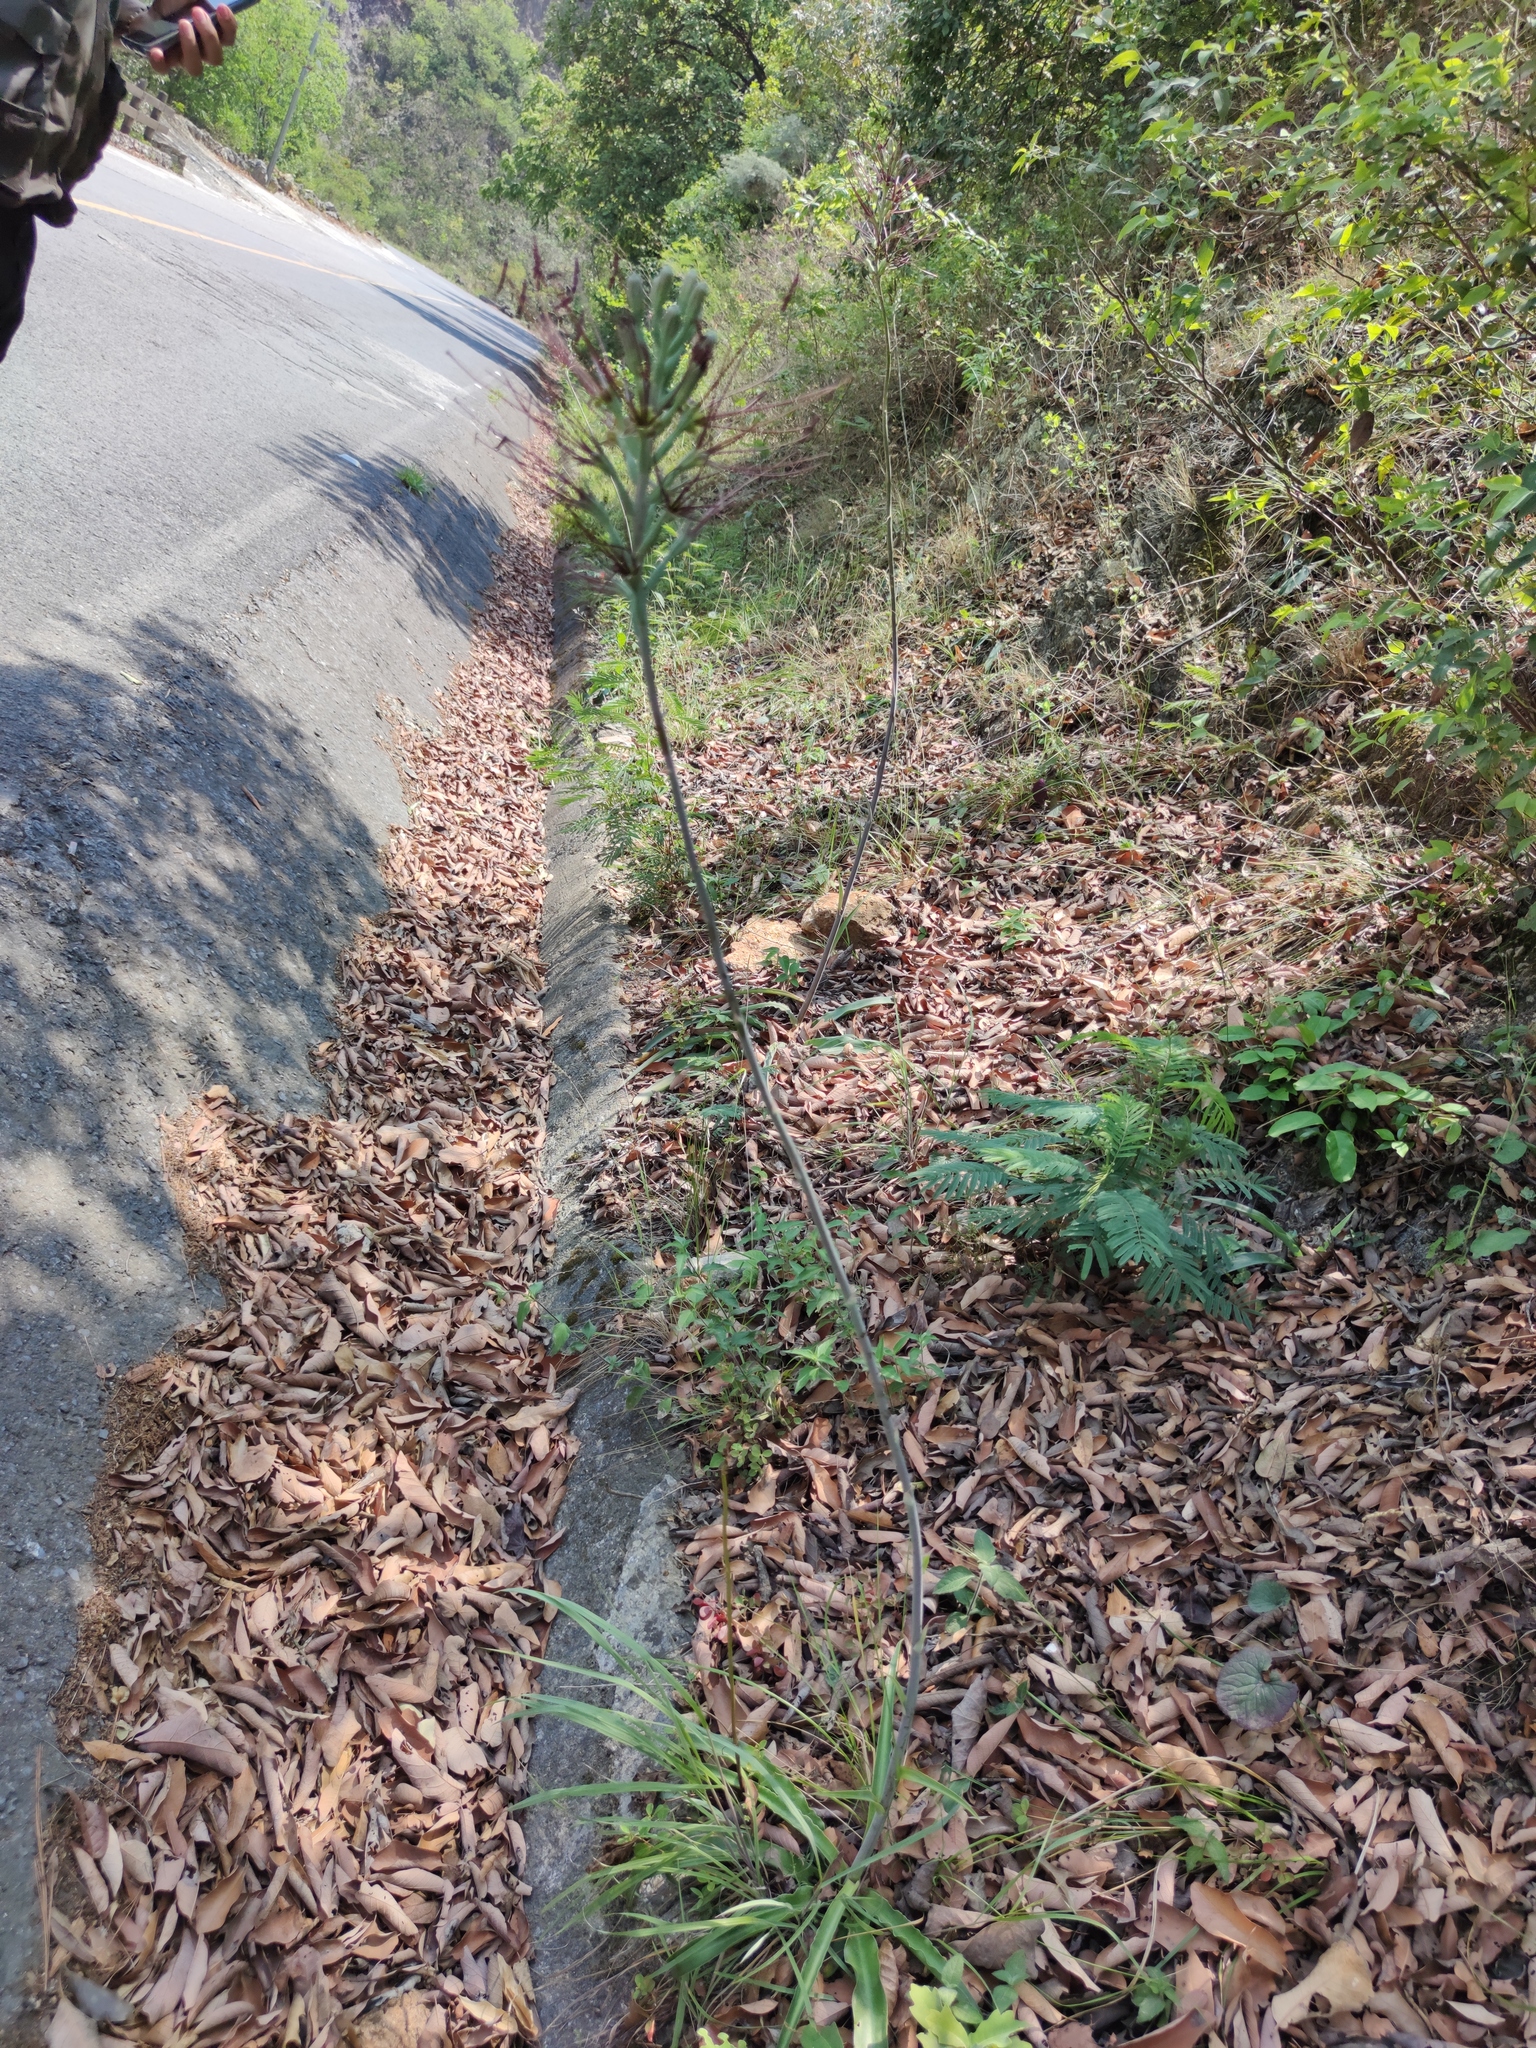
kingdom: Plantae
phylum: Tracheophyta
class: Liliopsida
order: Asparagales
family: Asparagaceae
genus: Agave
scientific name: Agave variegata
